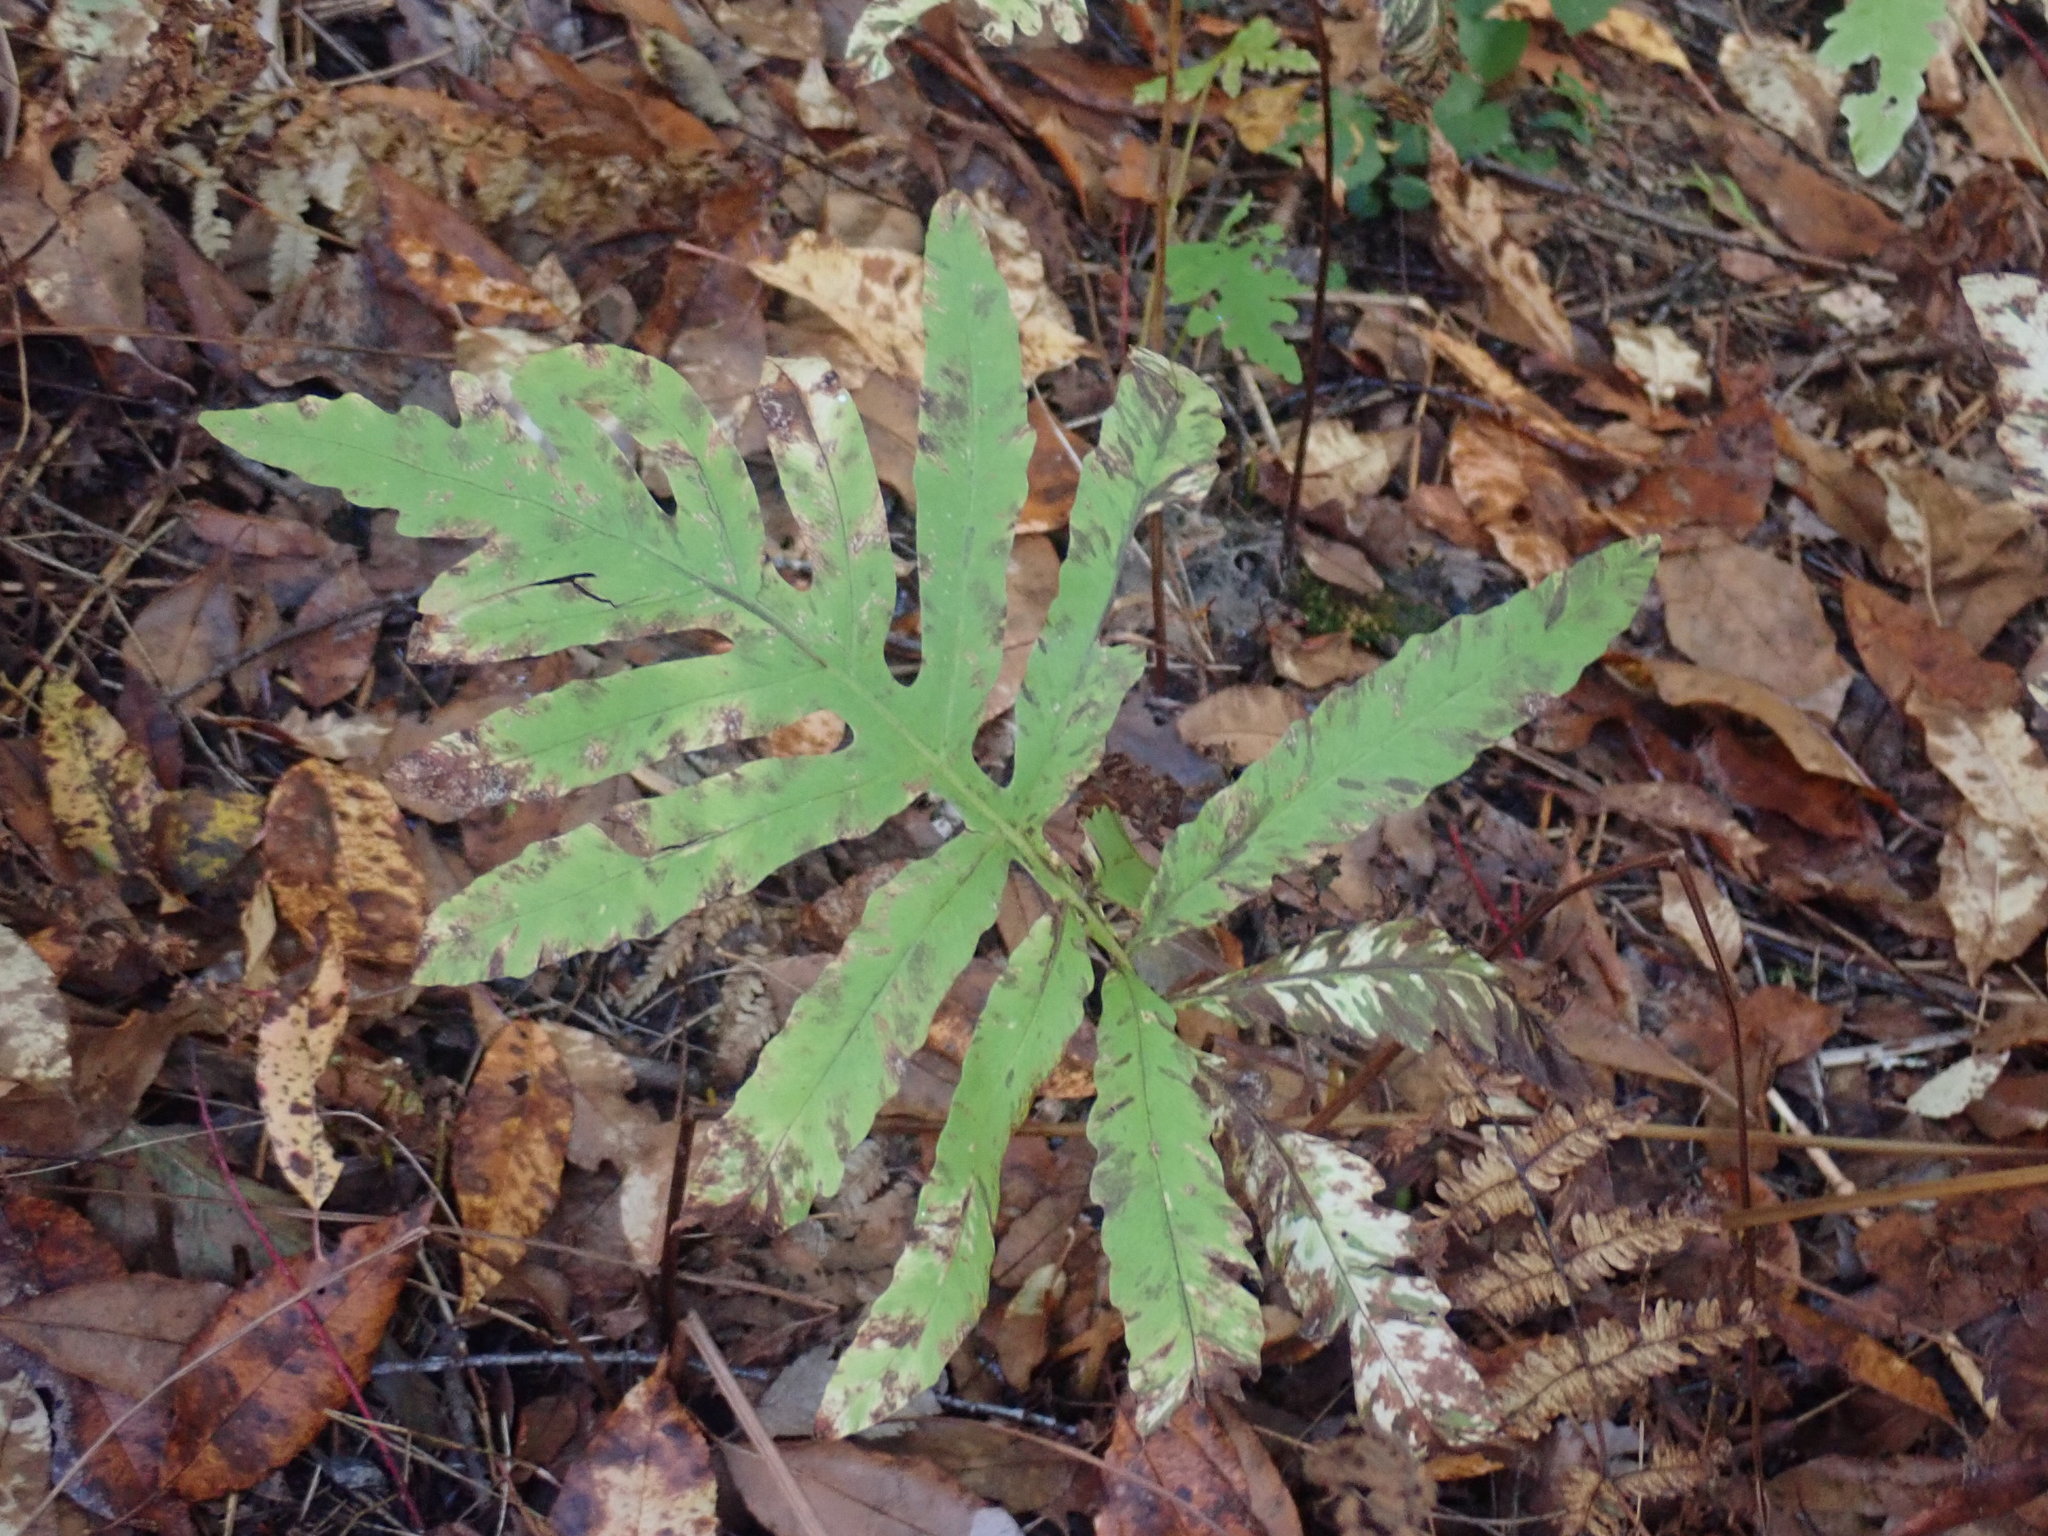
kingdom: Plantae
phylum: Tracheophyta
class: Polypodiopsida
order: Polypodiales
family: Onocleaceae
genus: Onoclea
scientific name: Onoclea sensibilis
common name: Sensitive fern
